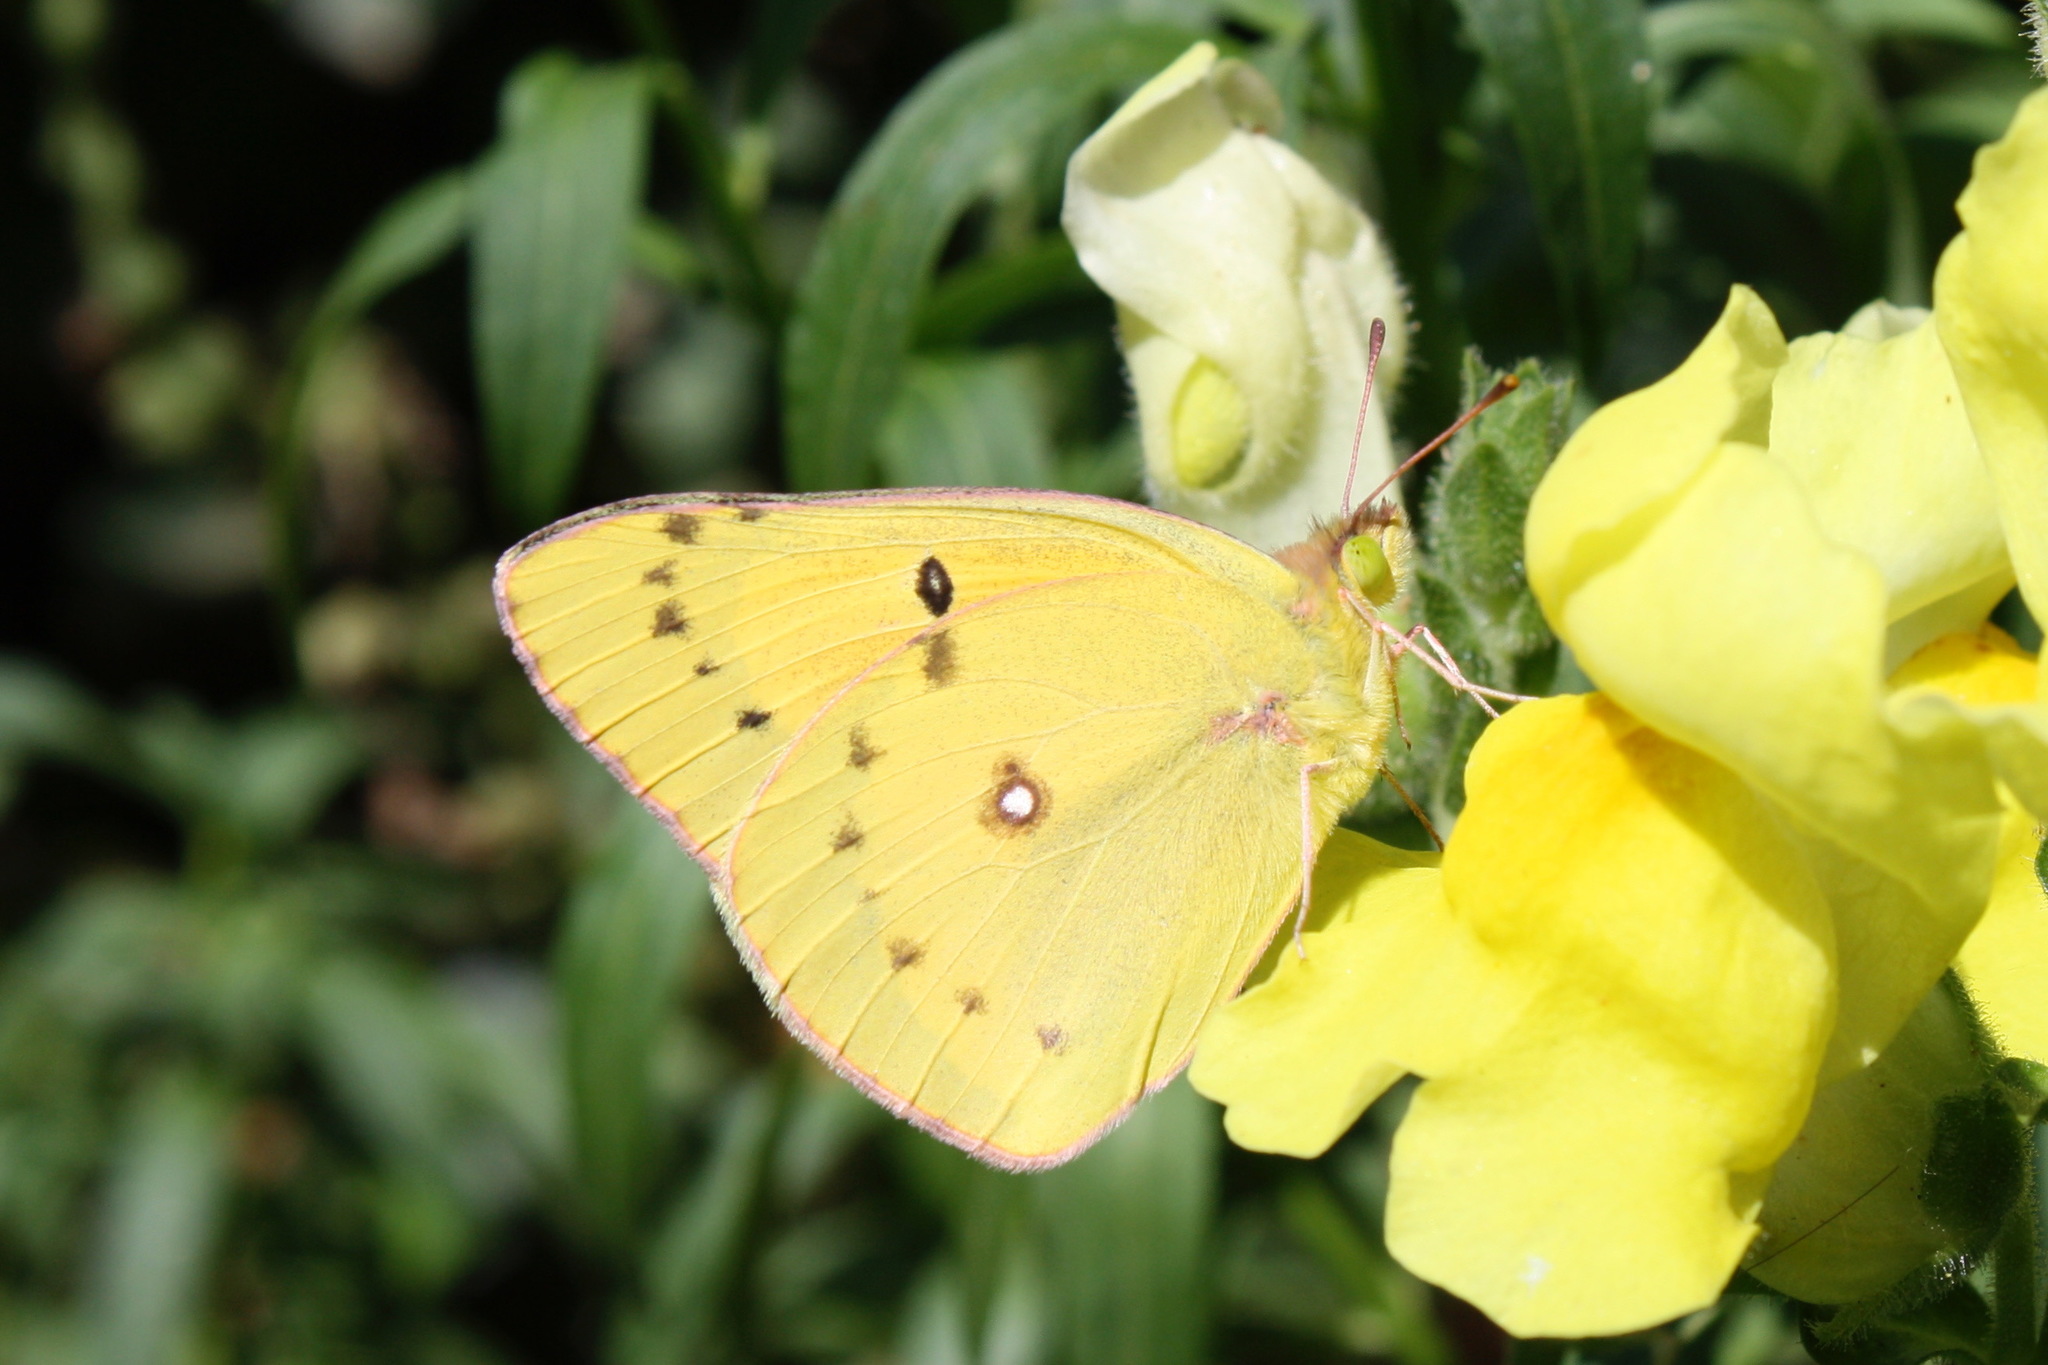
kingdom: Animalia
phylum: Arthropoda
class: Insecta
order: Lepidoptera
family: Pieridae
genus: Colias
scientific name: Colias eurytheme
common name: Alfalfa butterfly
